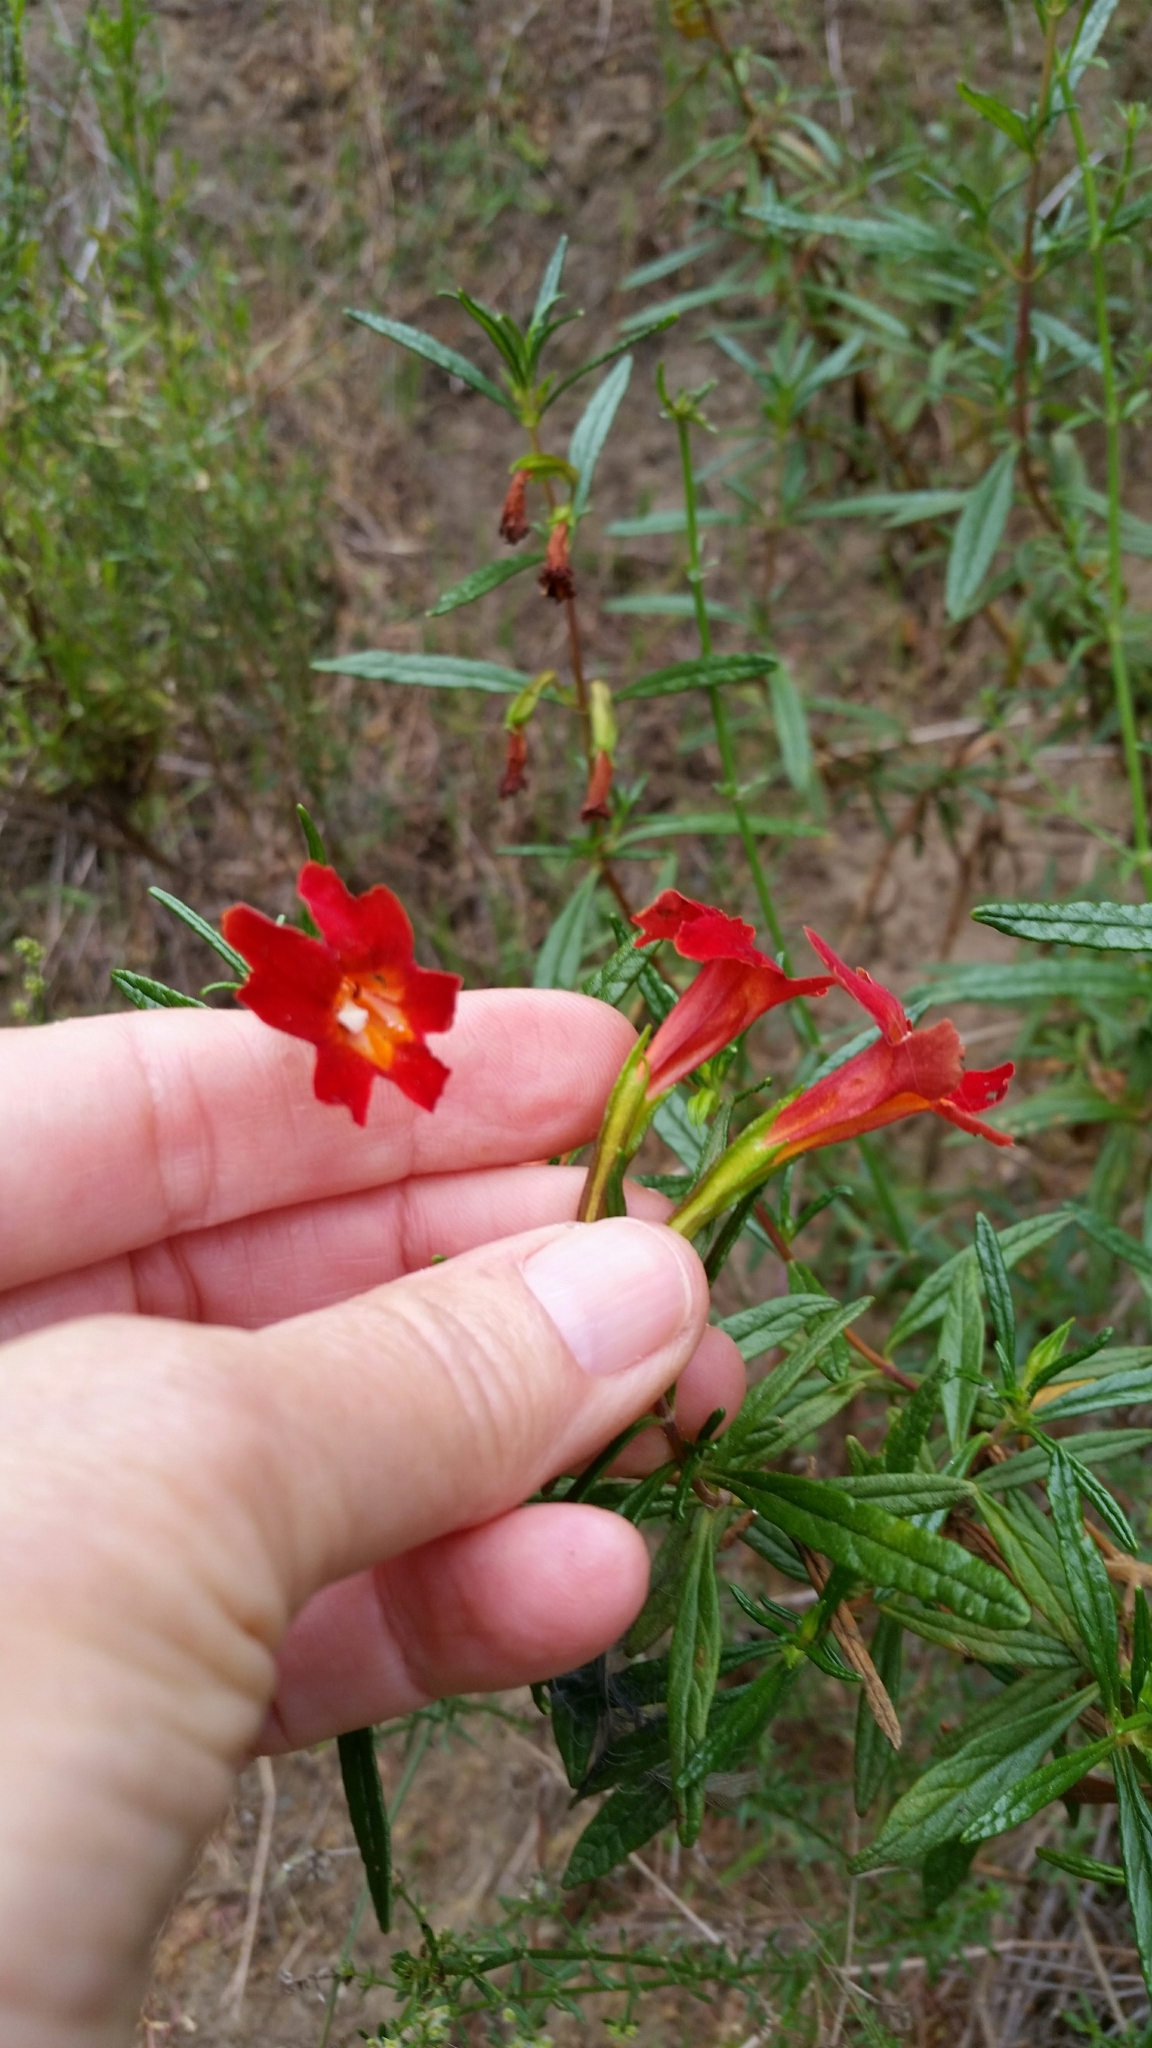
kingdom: Plantae
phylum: Tracheophyta
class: Magnoliopsida
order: Lamiales
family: Phrymaceae
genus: Diplacus
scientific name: Diplacus puniceus
